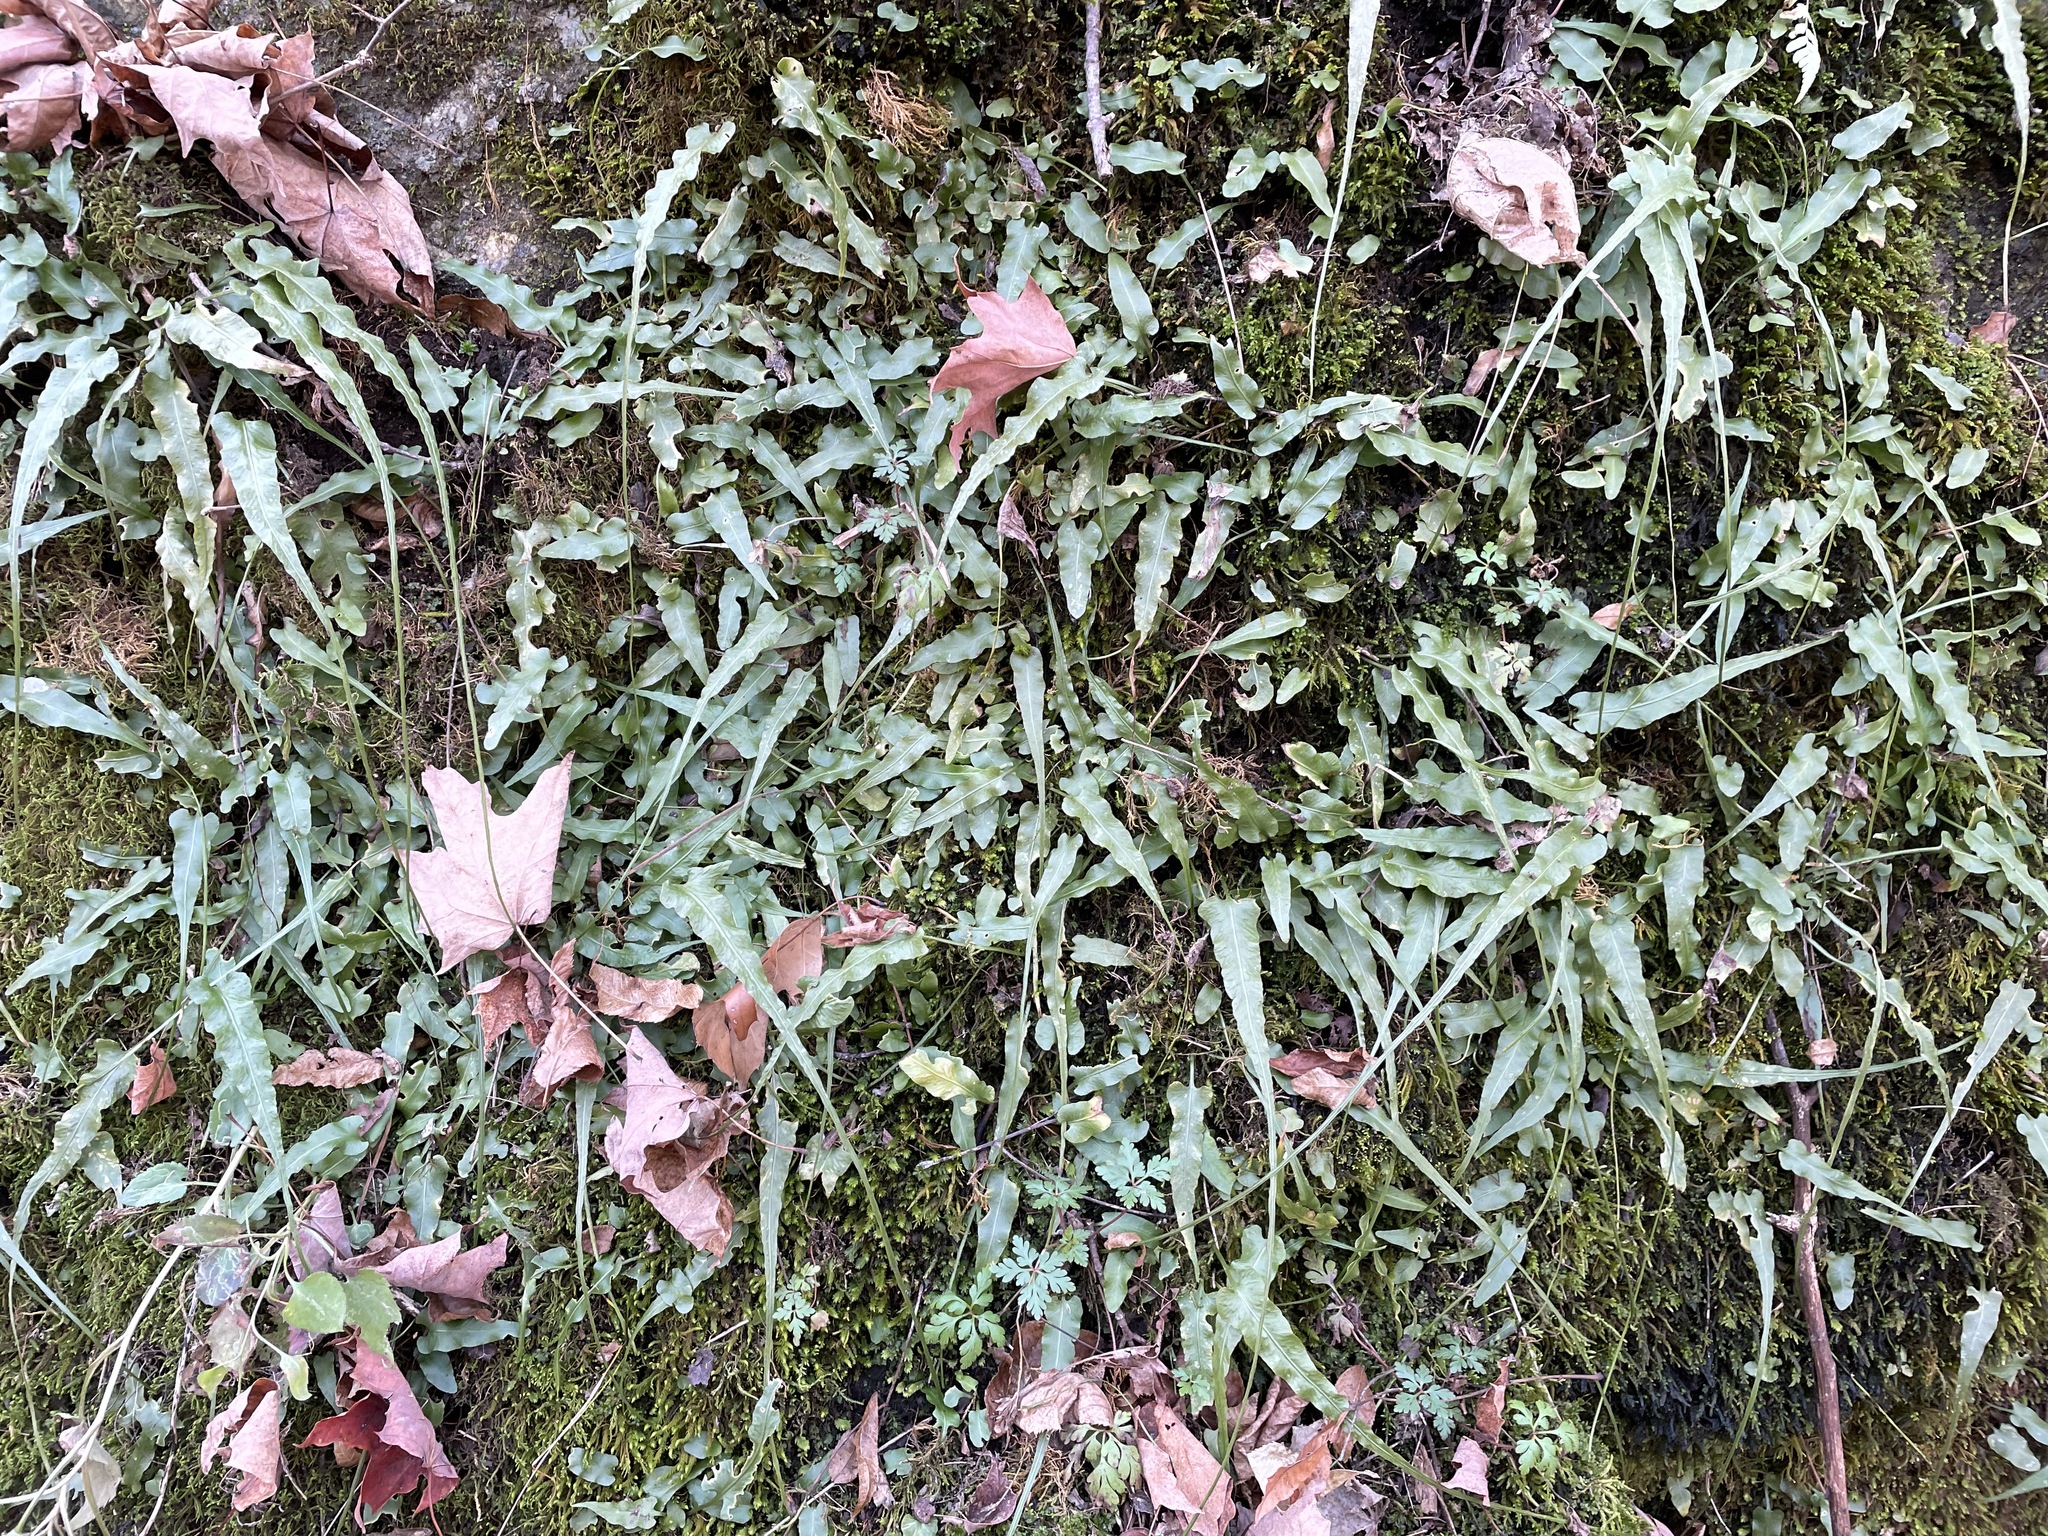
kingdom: Plantae
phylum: Tracheophyta
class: Polypodiopsida
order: Polypodiales
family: Aspleniaceae
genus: Asplenium
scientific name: Asplenium rhizophyllum
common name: Walking fern
